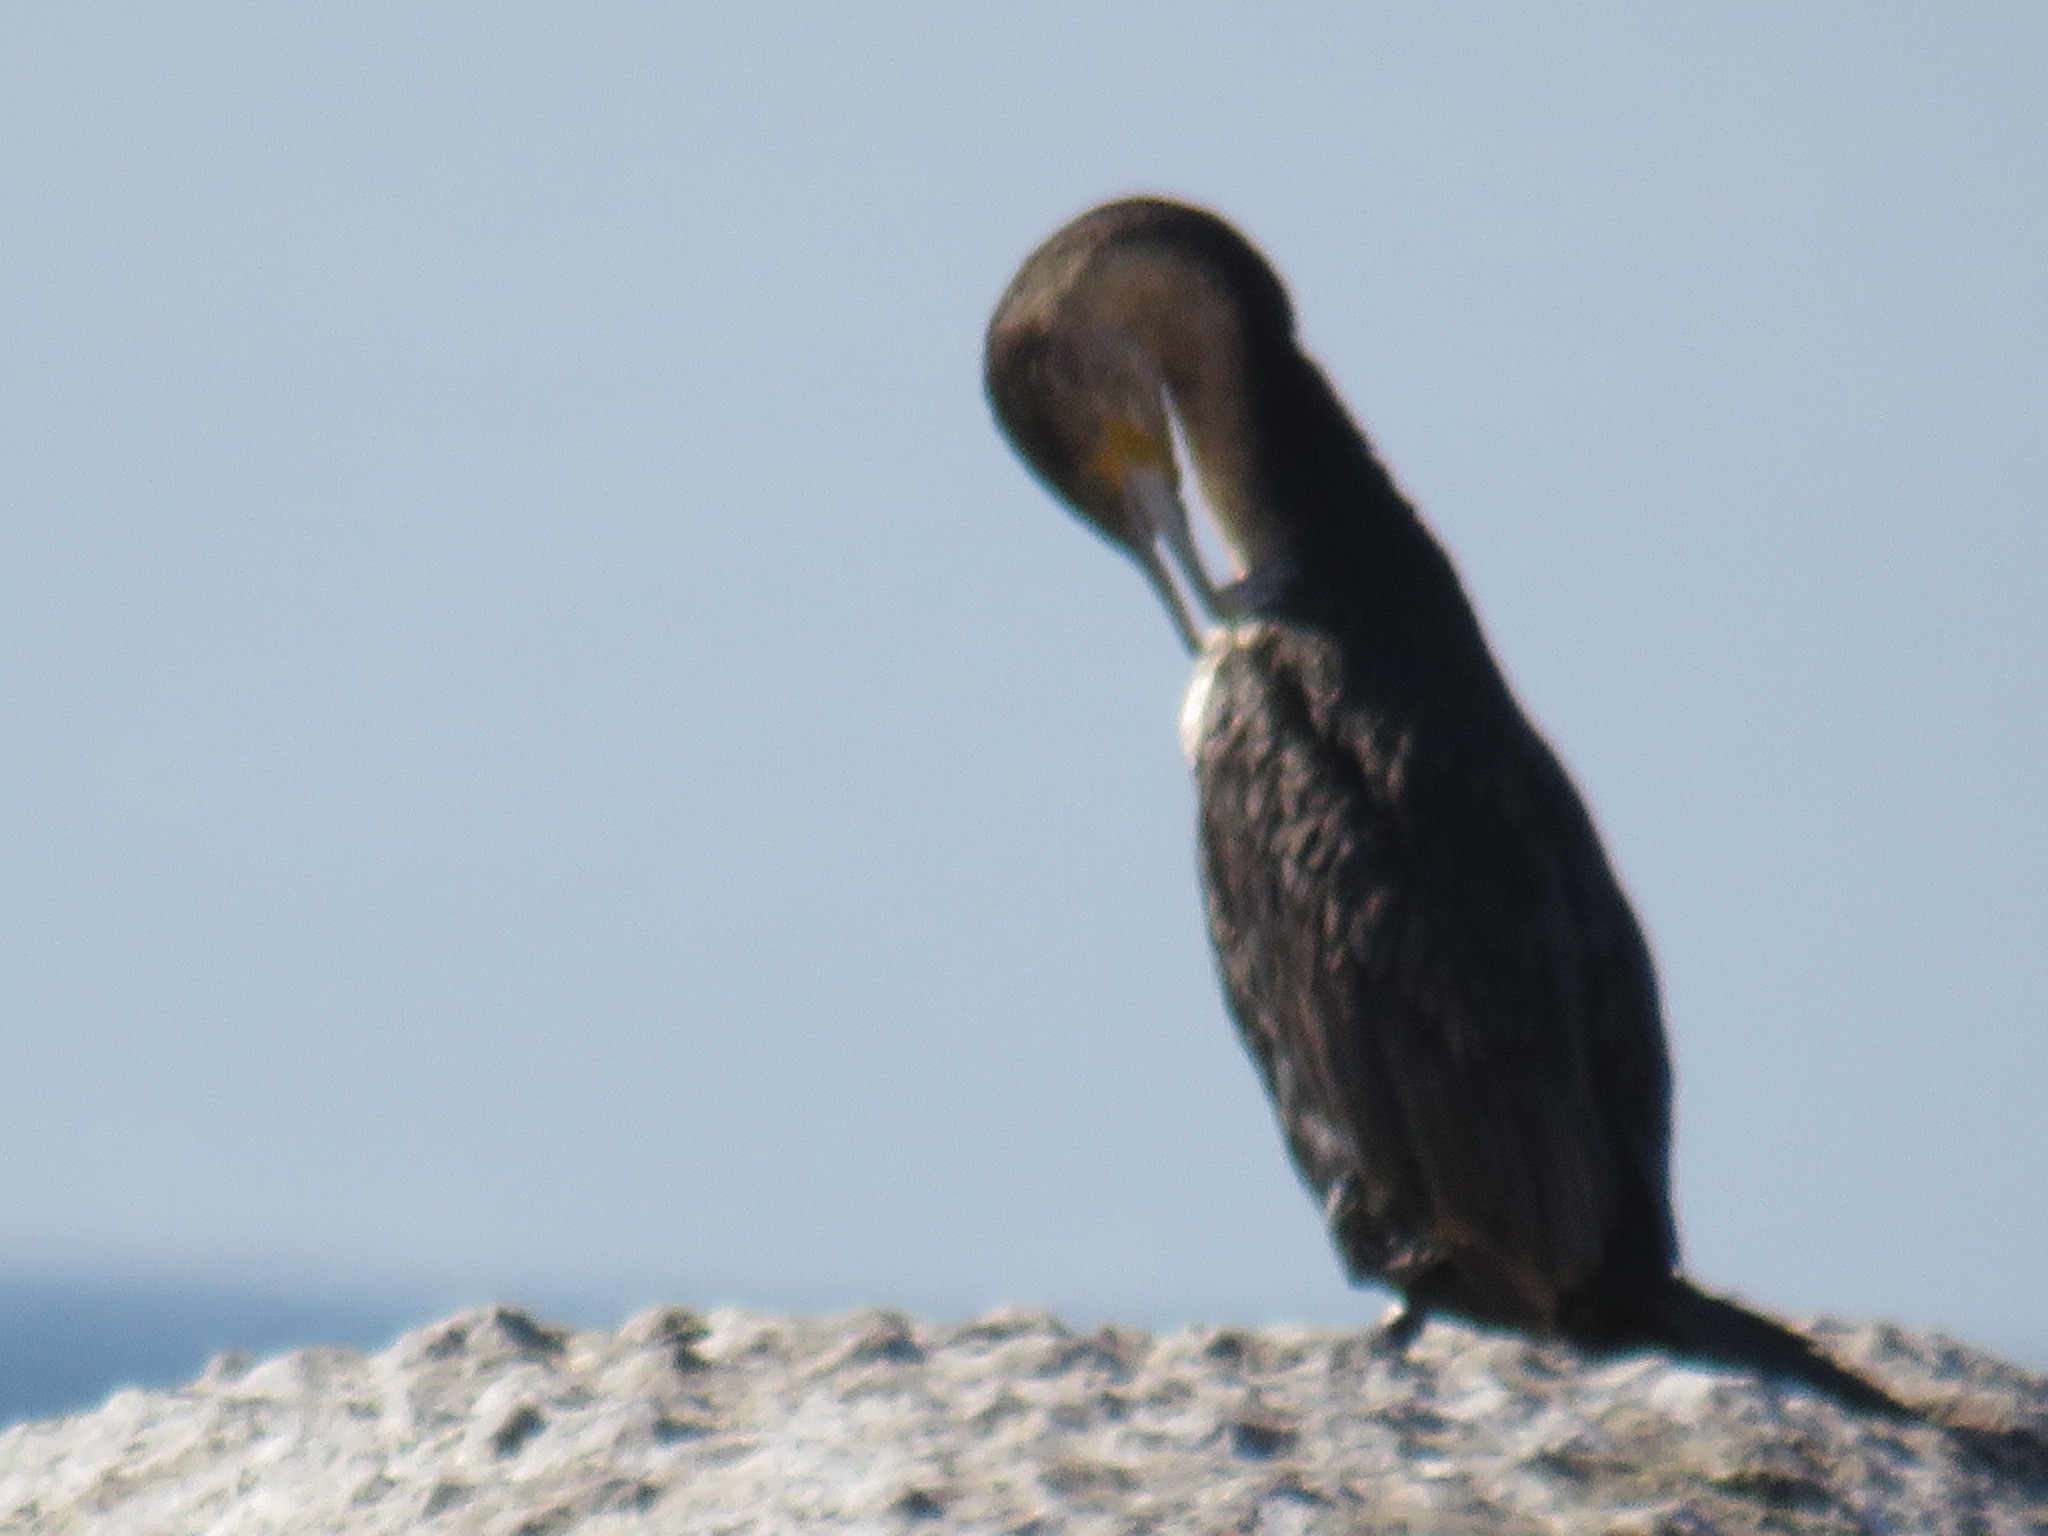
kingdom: Animalia
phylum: Chordata
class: Aves
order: Suliformes
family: Phalacrocoracidae
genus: Phalacrocorax
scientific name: Phalacrocorax carbo
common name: Great cormorant
